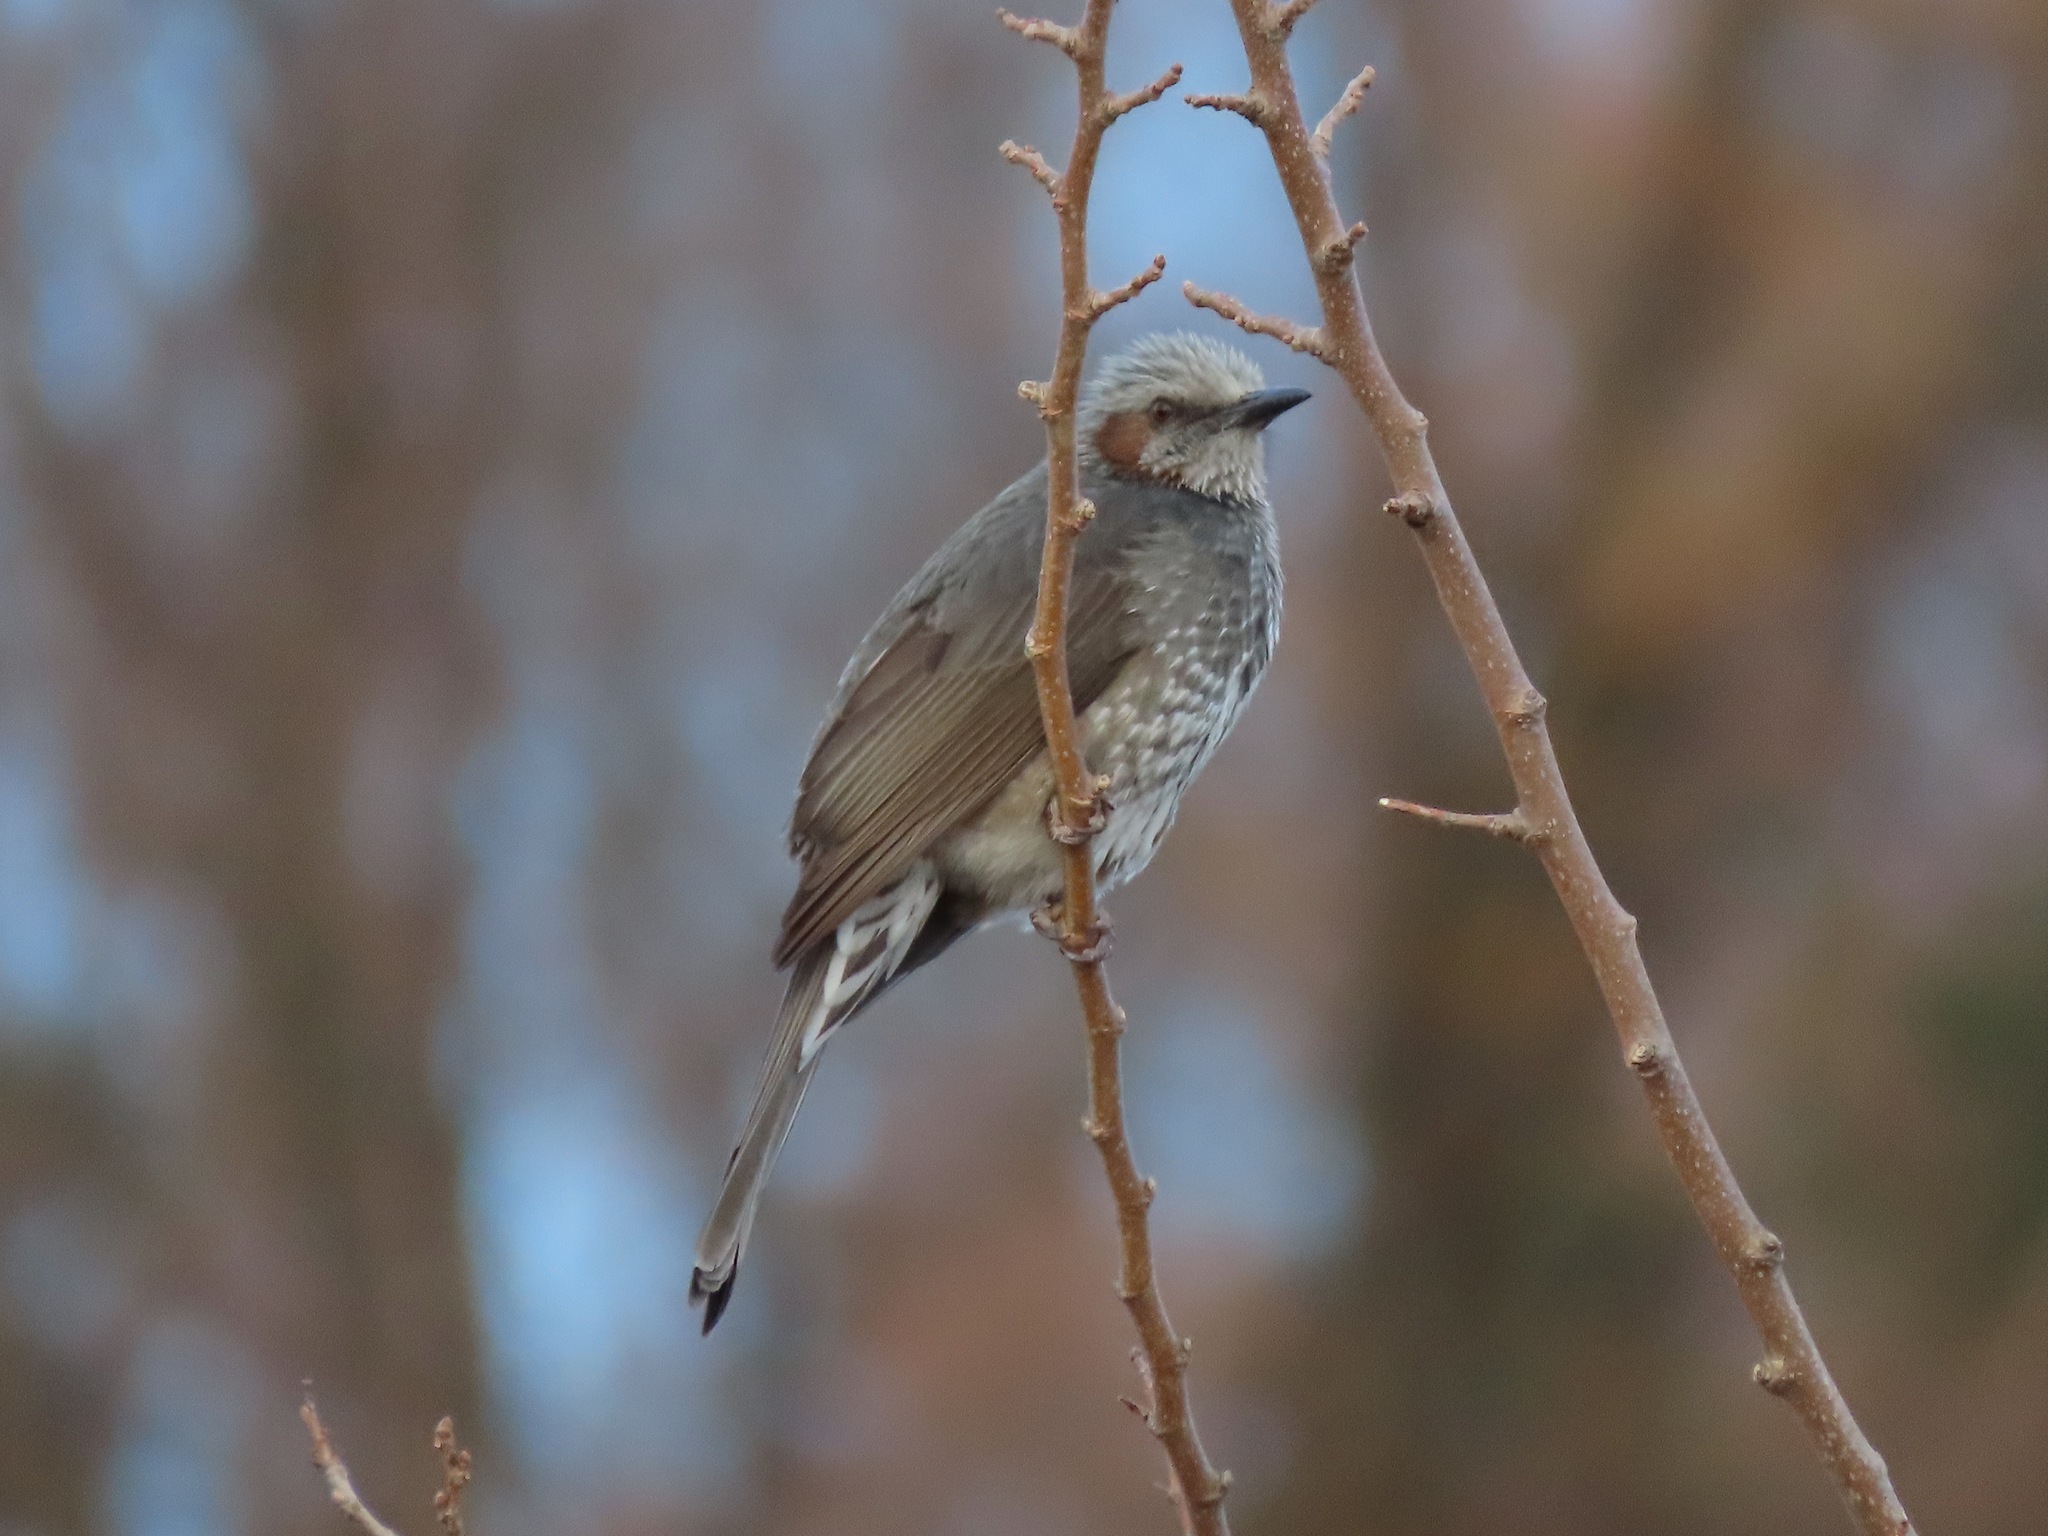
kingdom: Animalia
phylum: Chordata
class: Aves
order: Passeriformes
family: Pycnonotidae
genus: Hypsipetes
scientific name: Hypsipetes amaurotis
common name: Brown-eared bulbul
